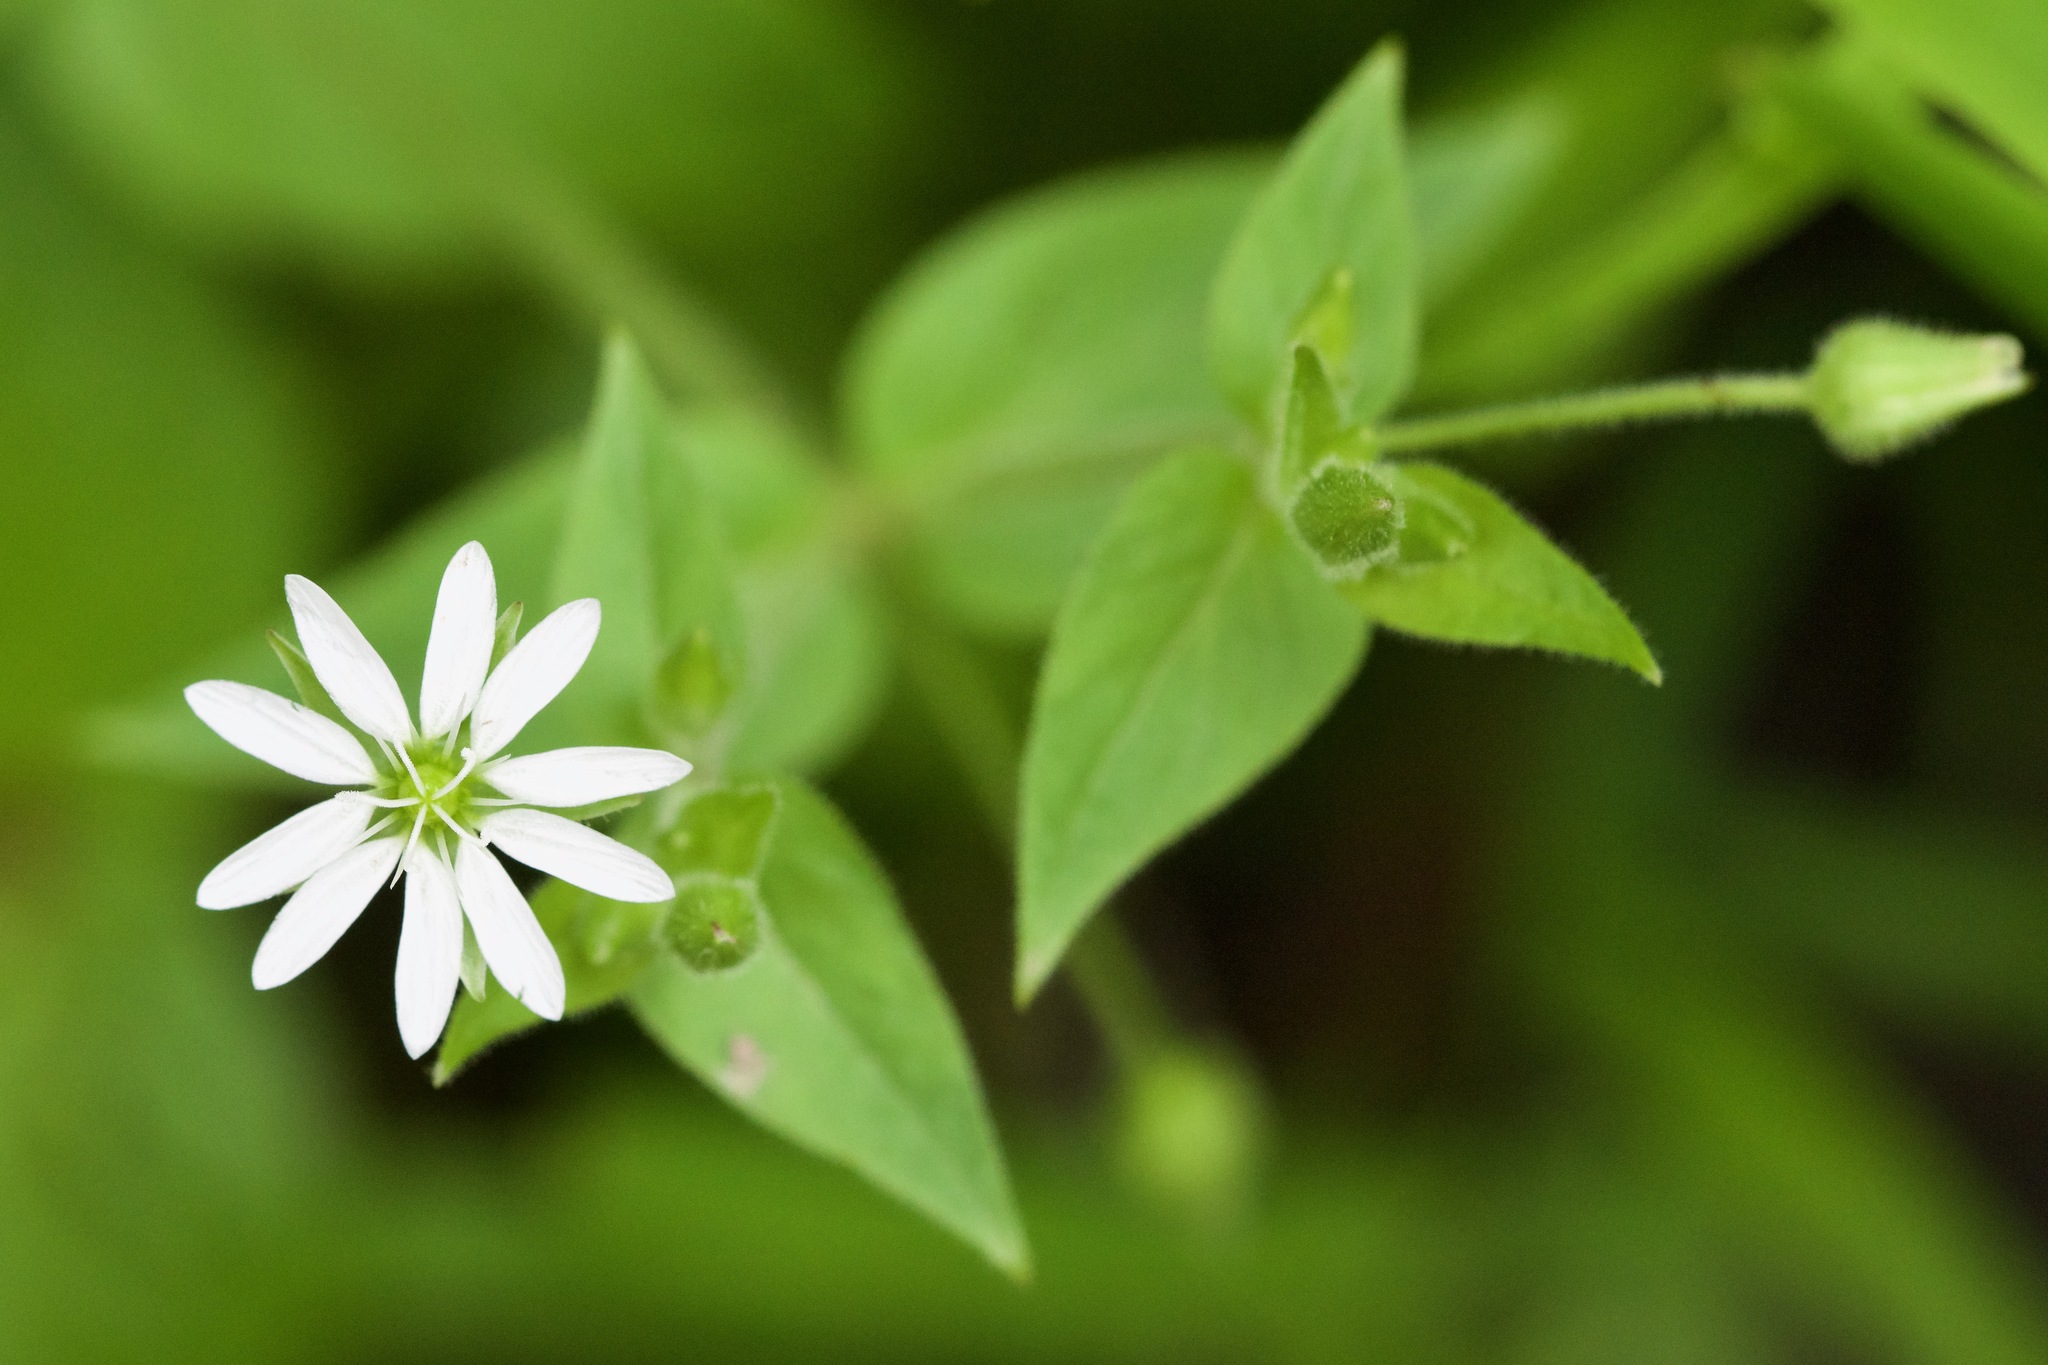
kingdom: Plantae
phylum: Tracheophyta
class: Magnoliopsida
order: Caryophyllales
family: Caryophyllaceae
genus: Stellaria
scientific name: Stellaria aquatica
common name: Water chickweed
